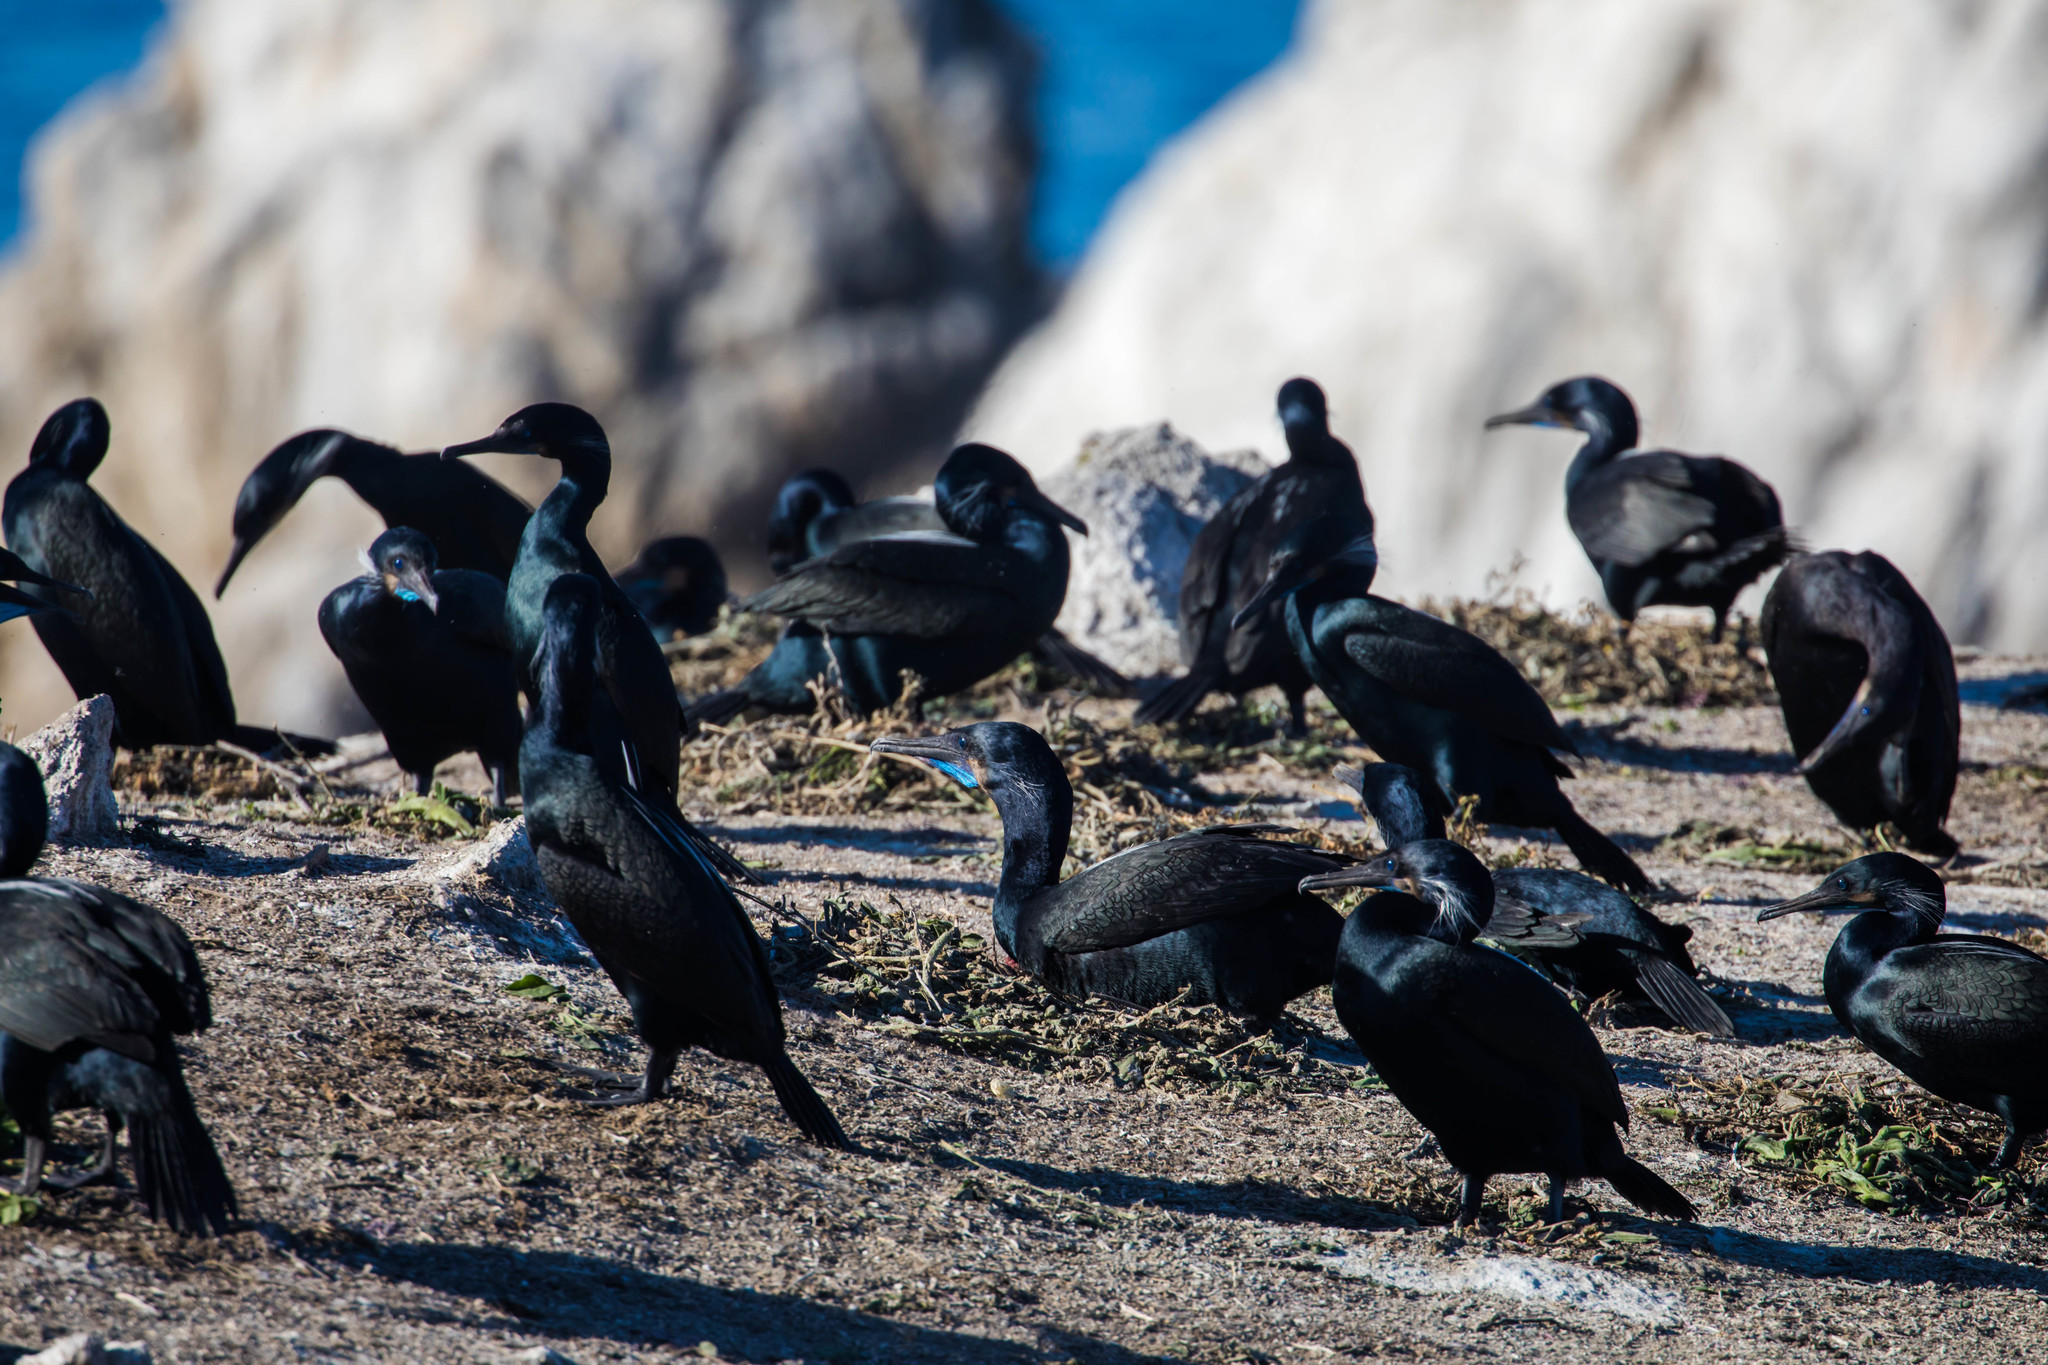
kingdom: Animalia
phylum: Chordata
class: Aves
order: Suliformes
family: Phalacrocoracidae
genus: Urile
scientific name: Urile penicillatus
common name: Brandt's cormorant
